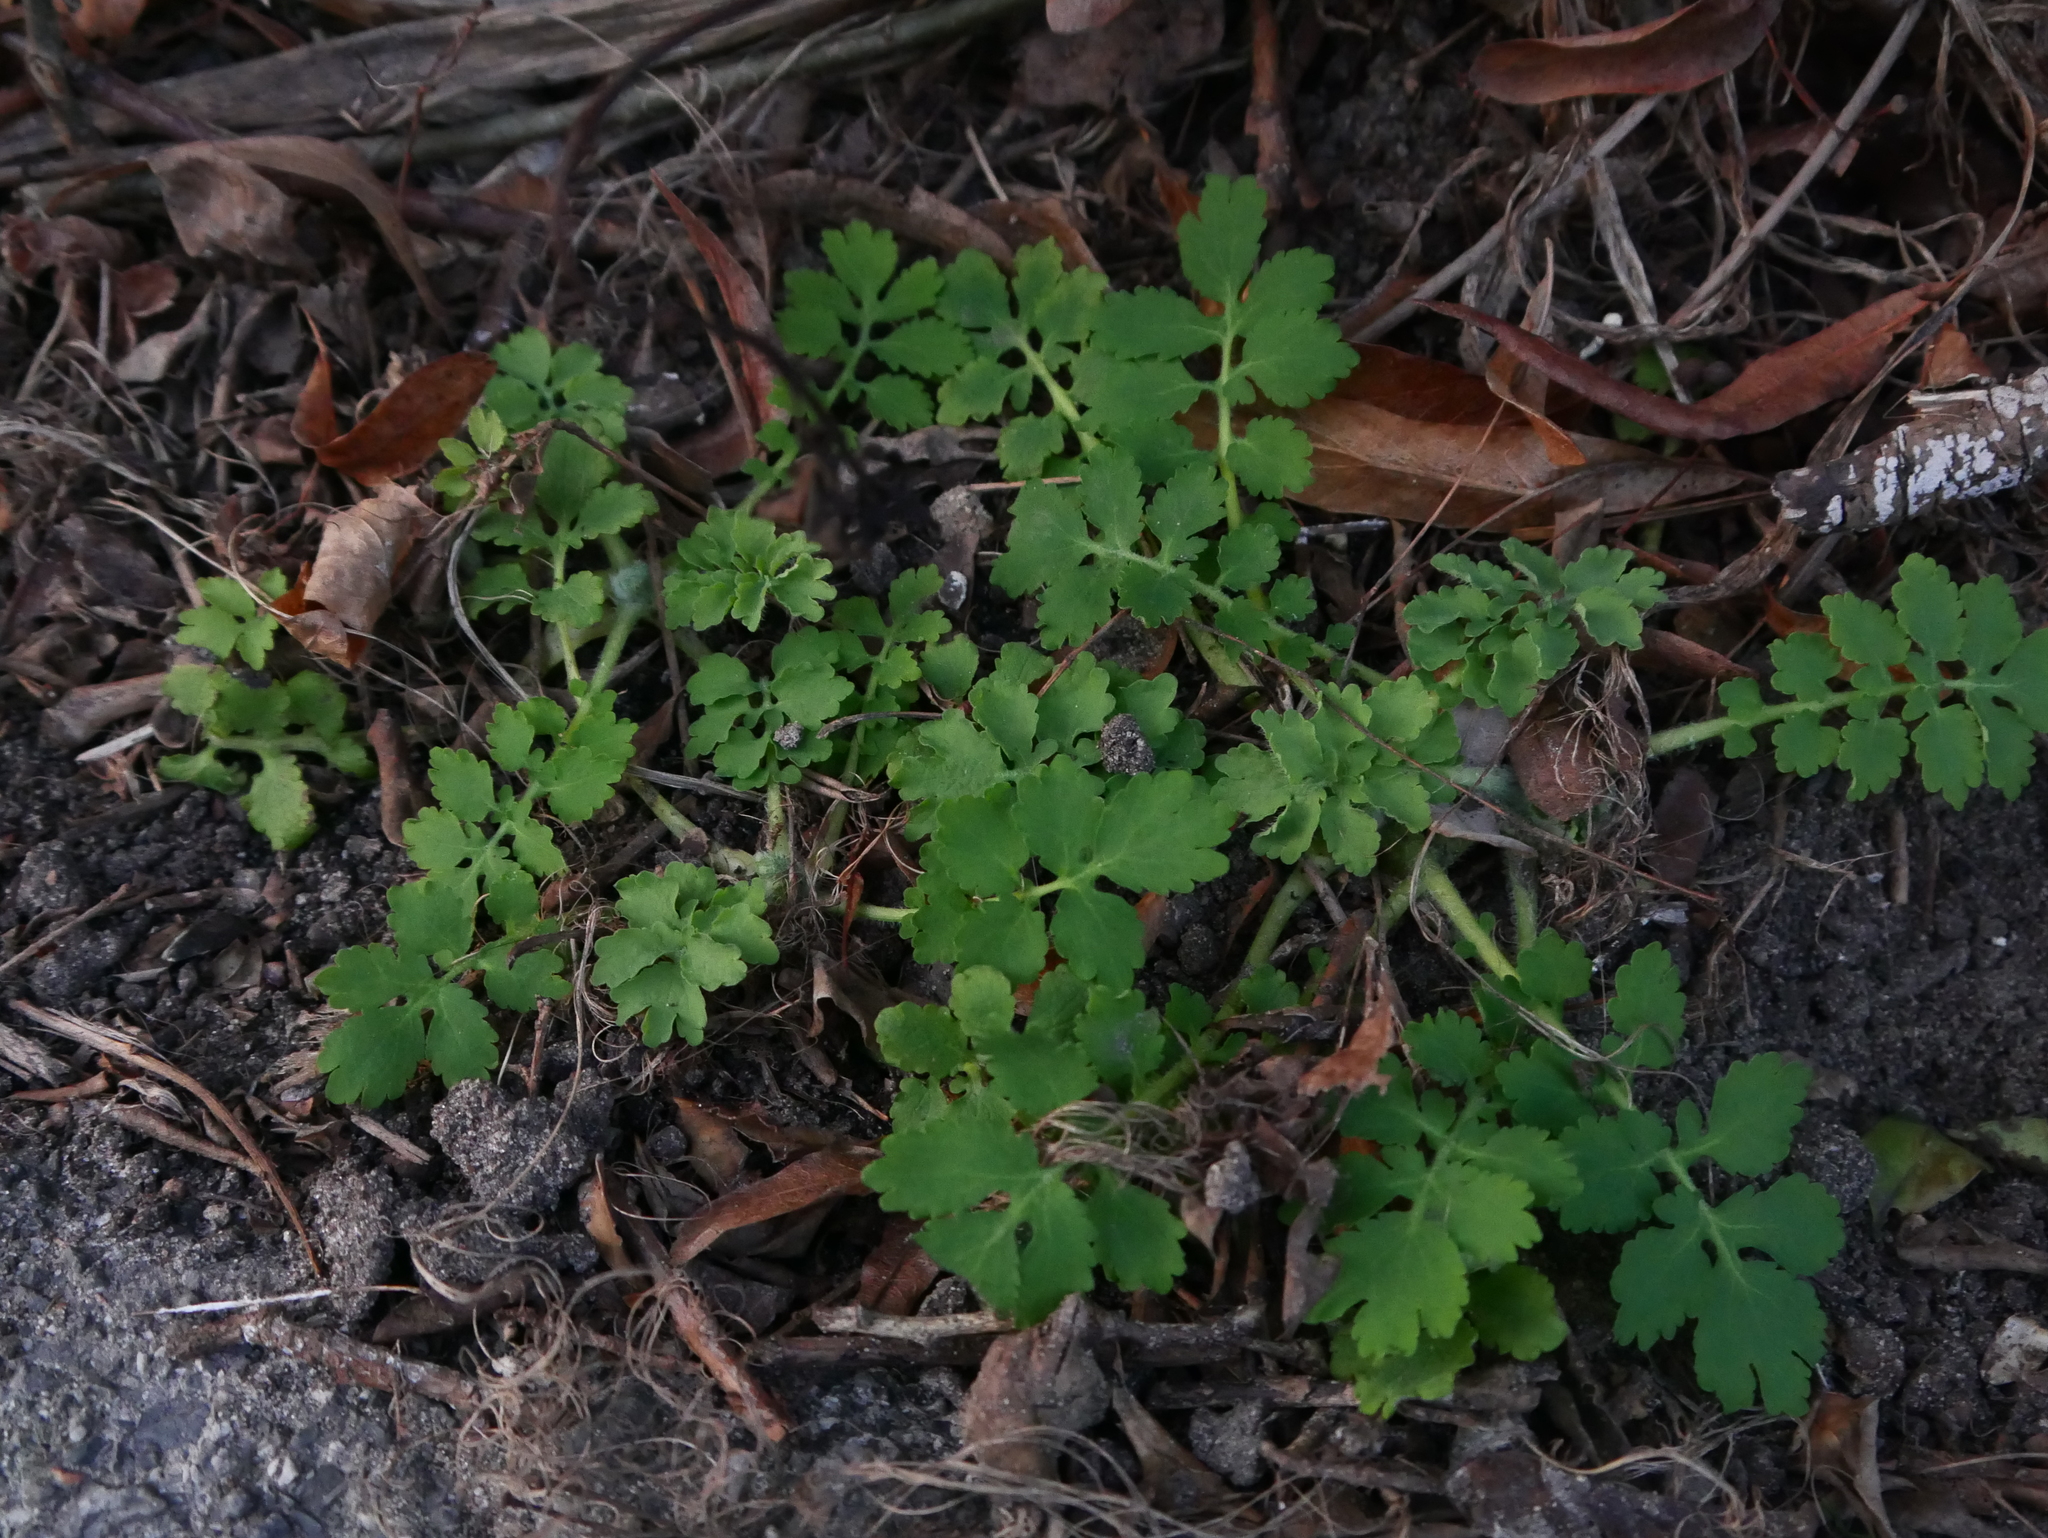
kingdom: Plantae
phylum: Tracheophyta
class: Magnoliopsida
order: Ranunculales
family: Papaveraceae
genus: Chelidonium
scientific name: Chelidonium majus
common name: Greater celandine
